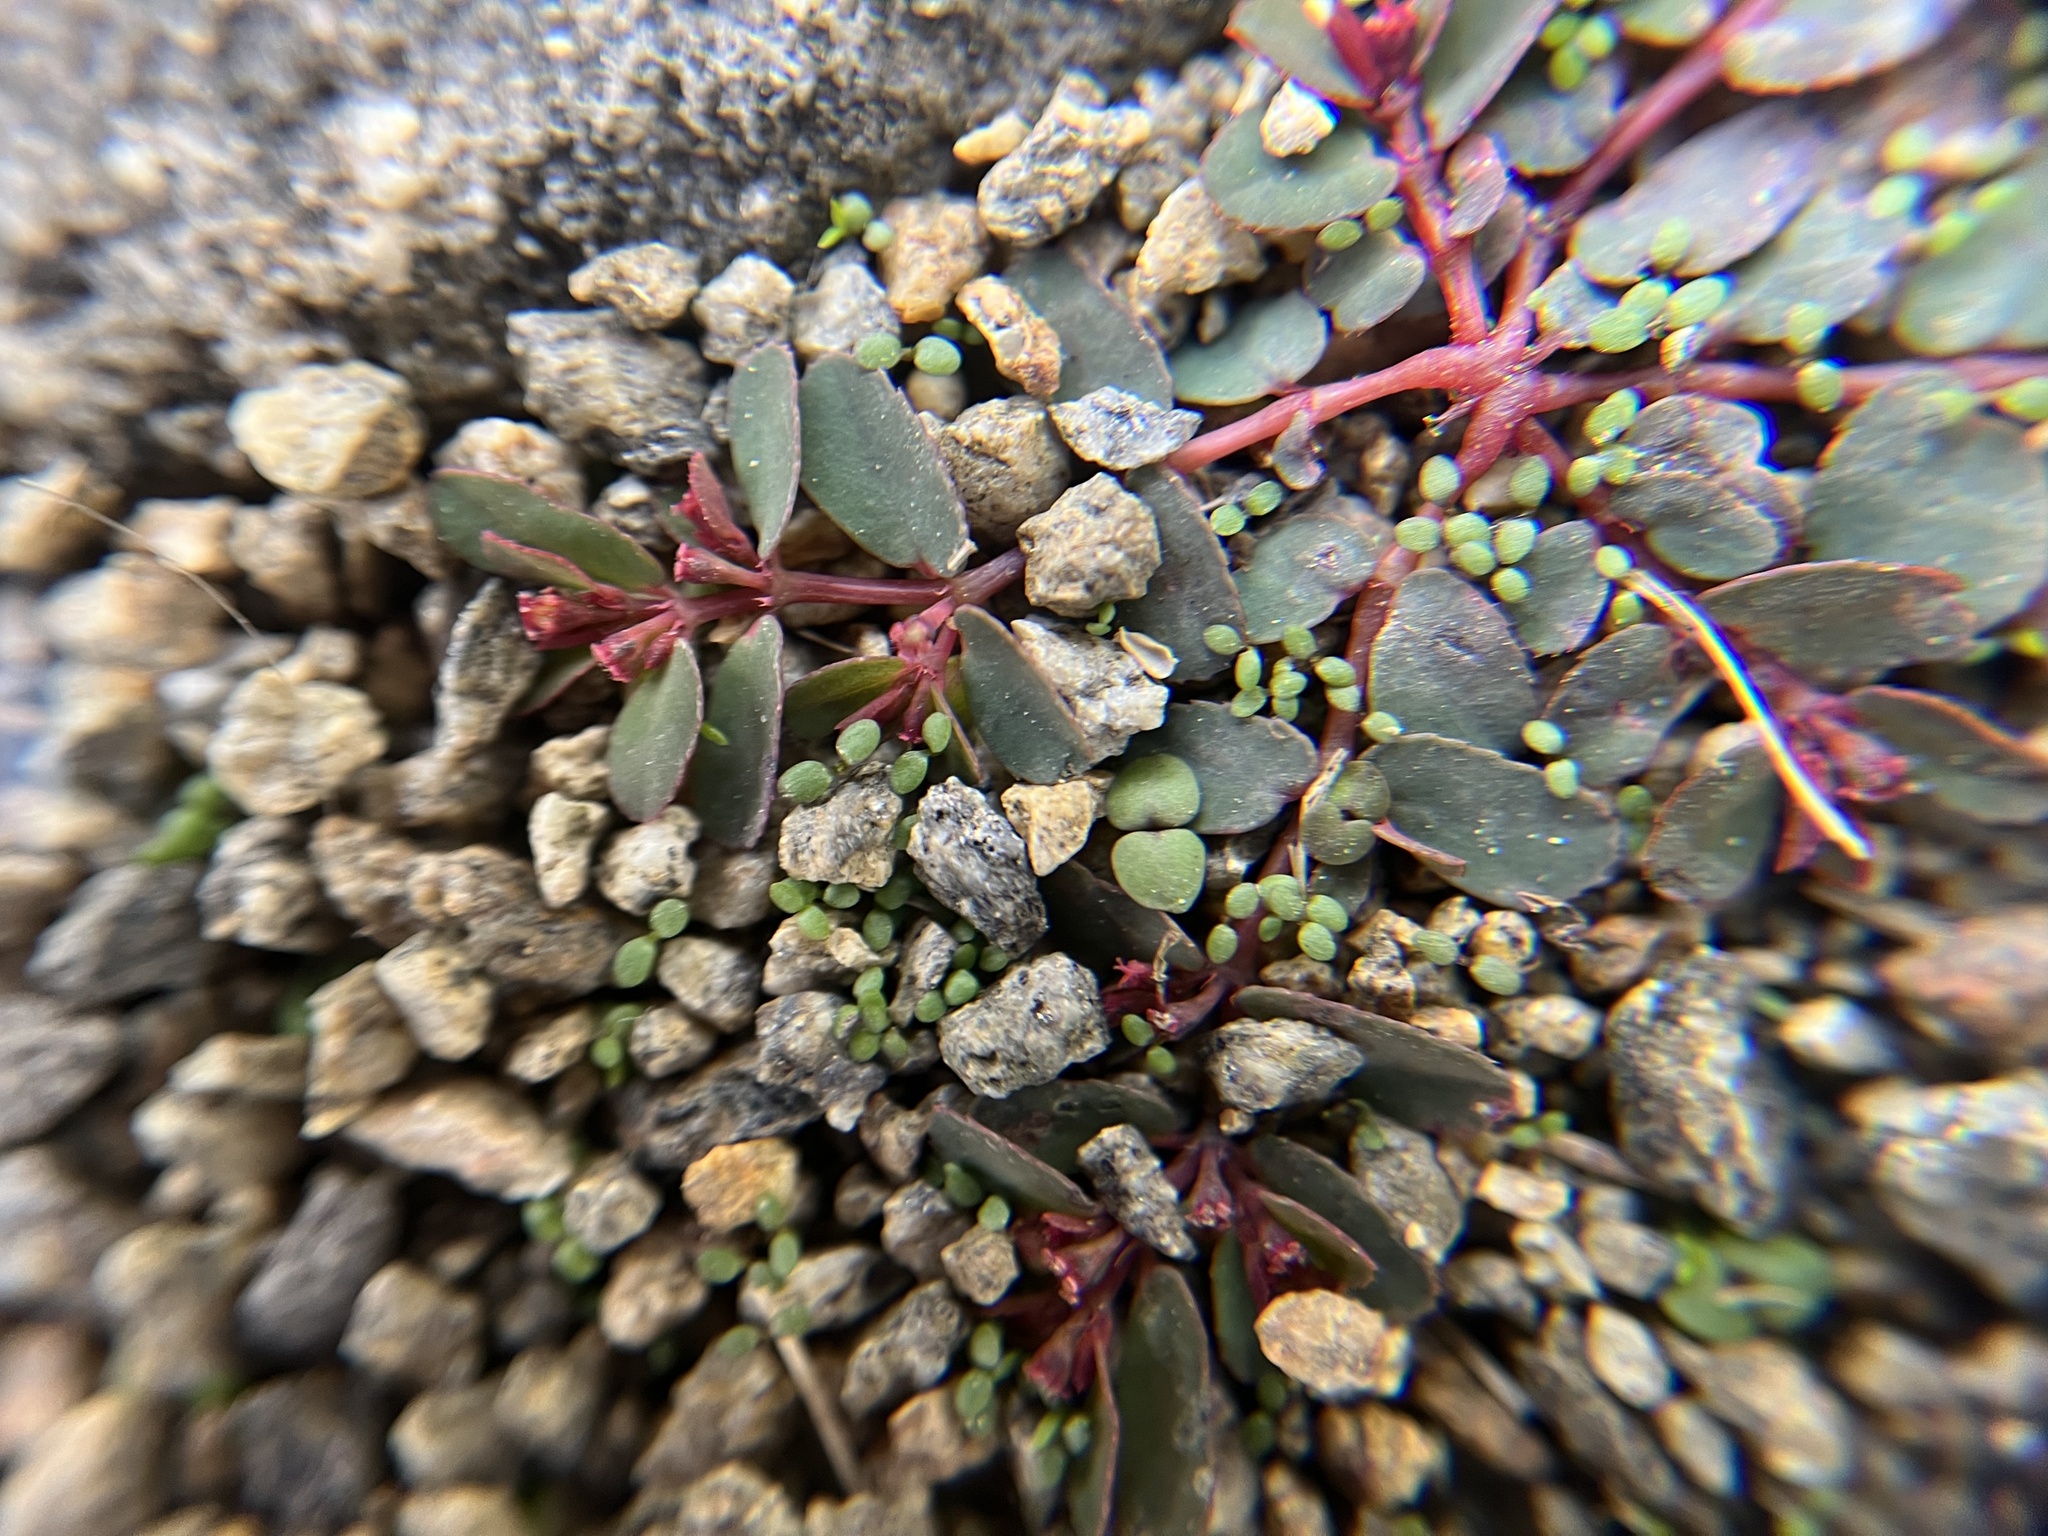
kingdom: Plantae
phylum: Tracheophyta
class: Magnoliopsida
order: Malpighiales
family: Euphorbiaceae
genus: Euphorbia
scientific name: Euphorbia humifusa
